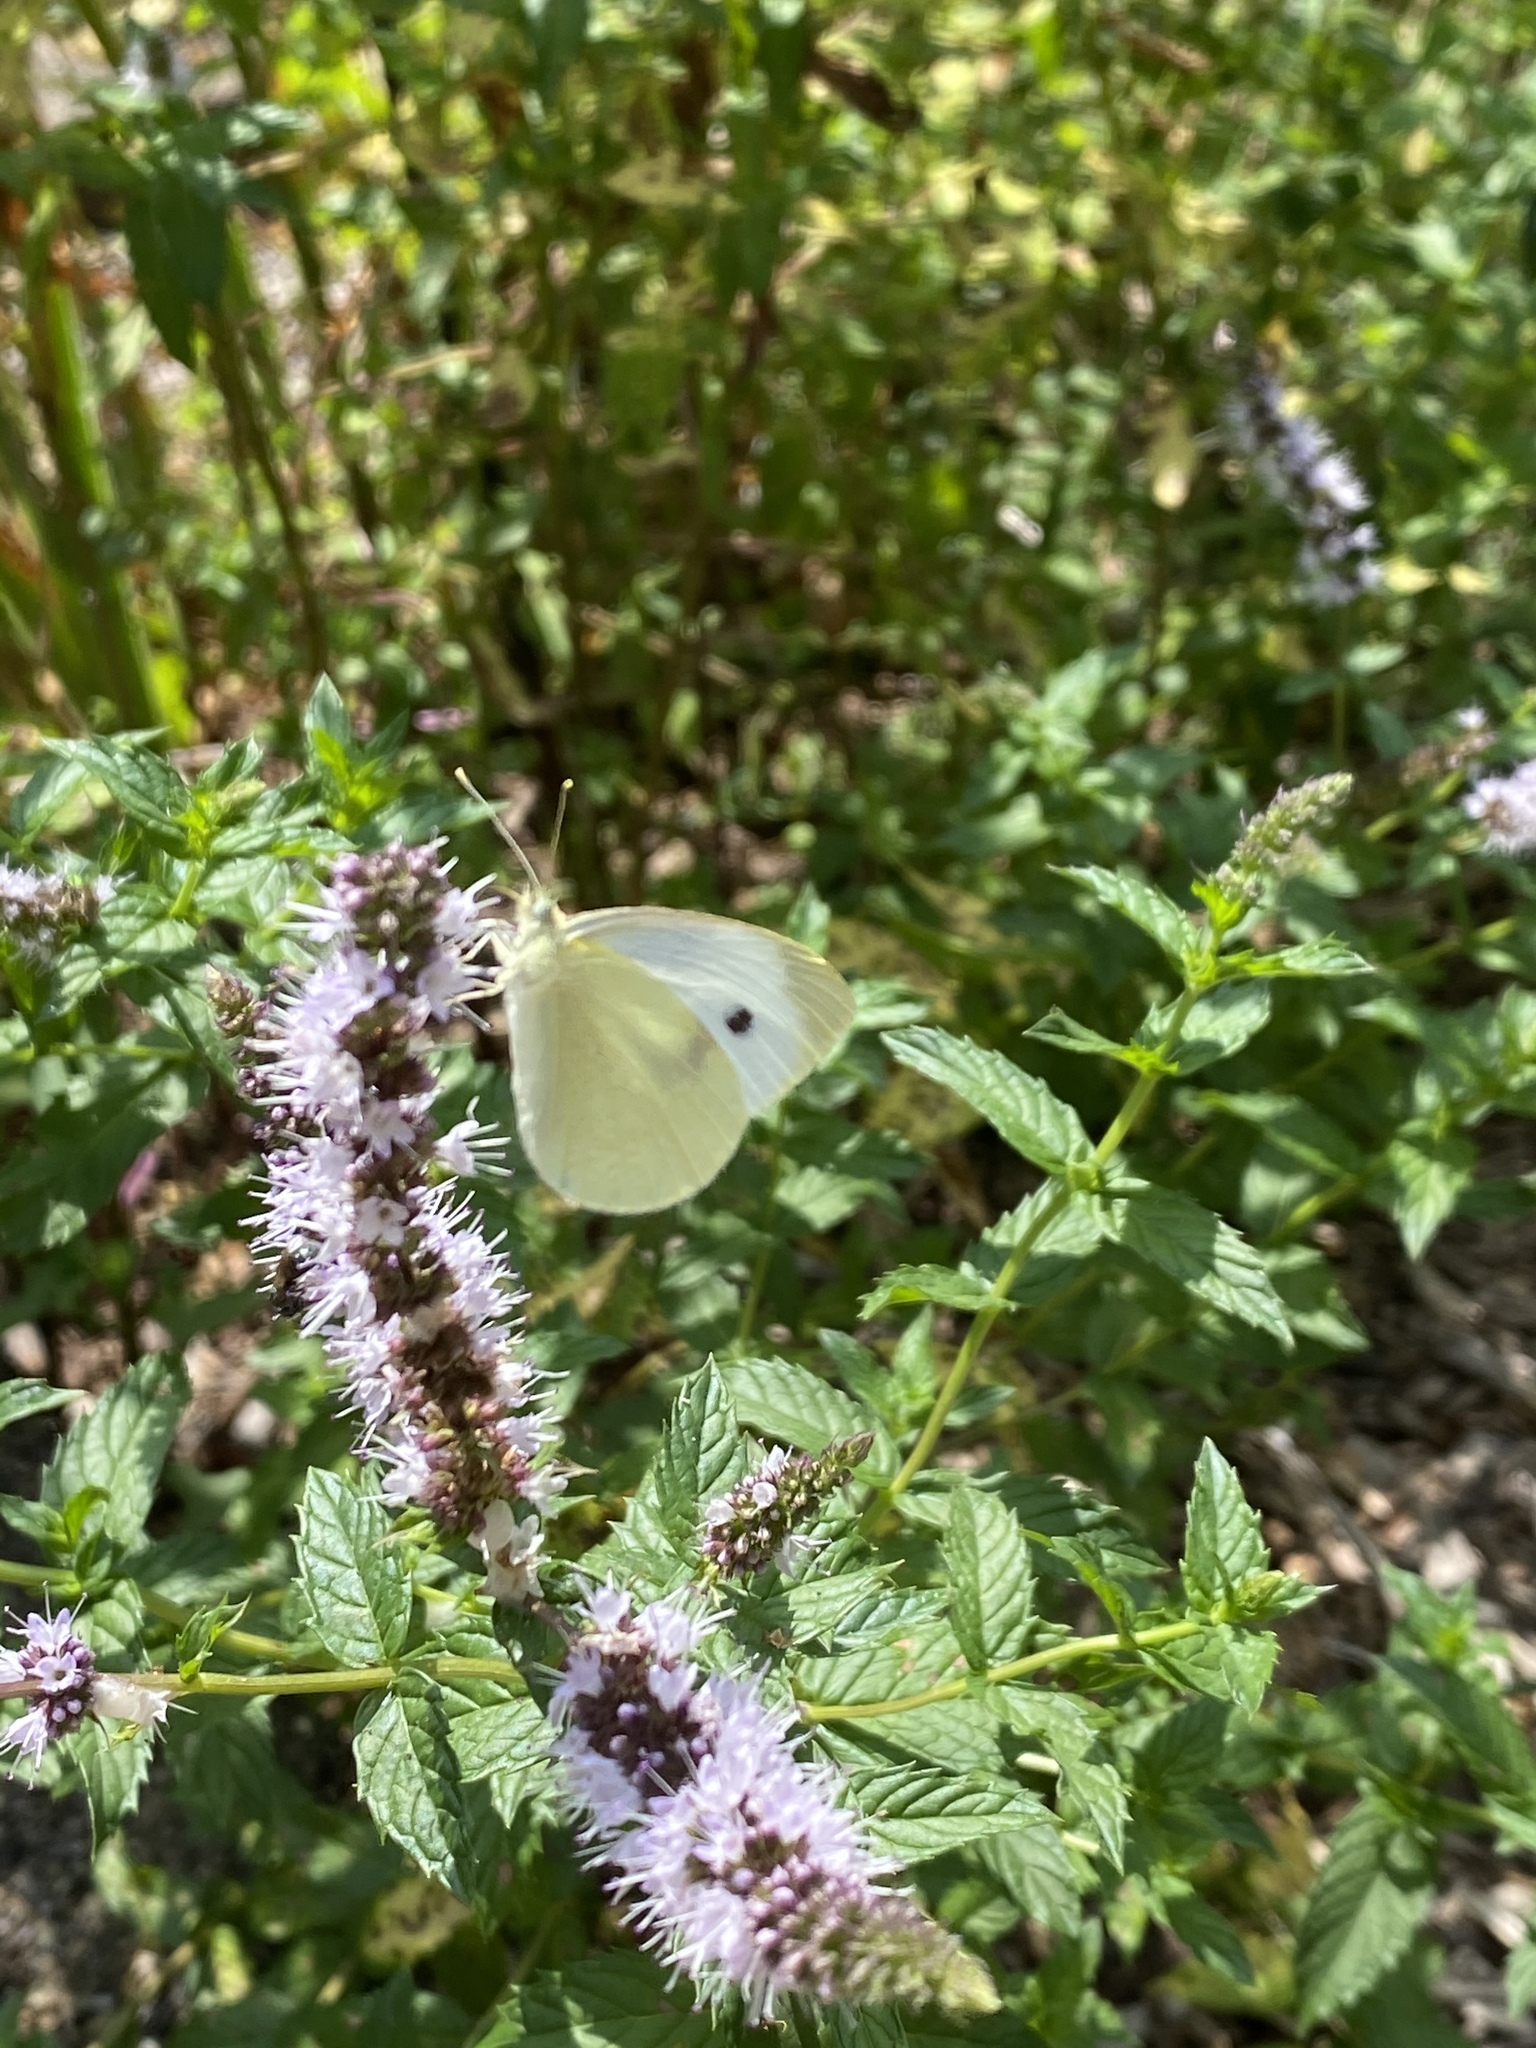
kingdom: Animalia
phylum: Arthropoda
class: Insecta
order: Lepidoptera
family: Pieridae
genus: Pieris
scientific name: Pieris rapae
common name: Small white
